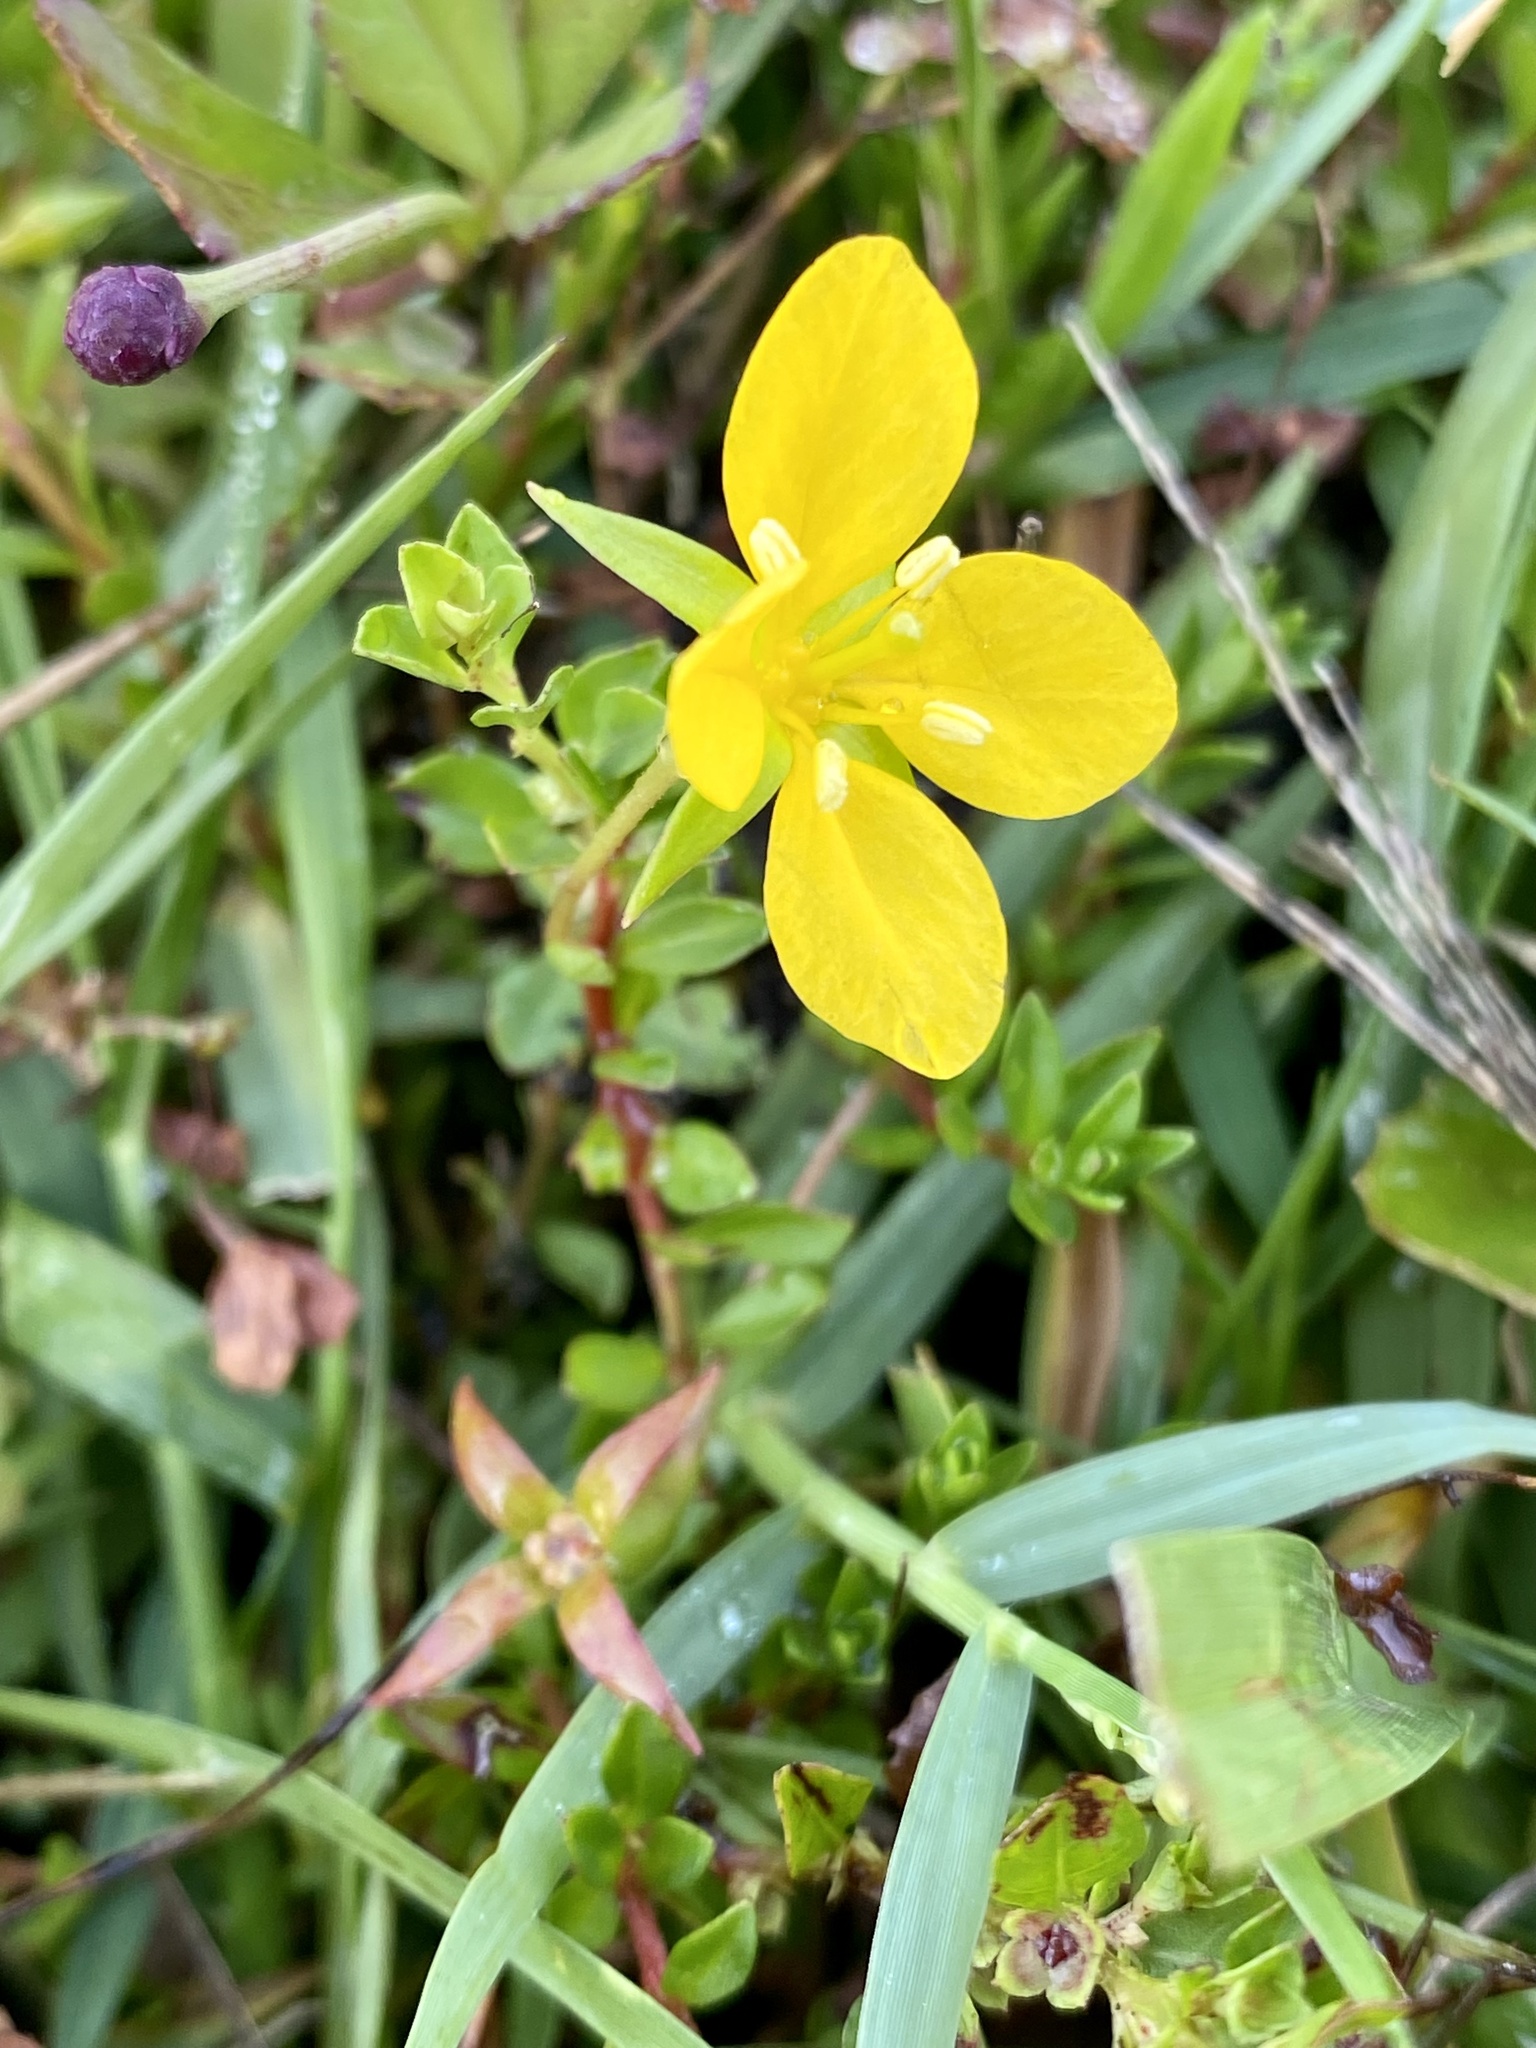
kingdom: Plantae
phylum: Tracheophyta
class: Magnoliopsida
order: Myrtales
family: Onagraceae
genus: Ludwigia
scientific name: Ludwigia arcuata
